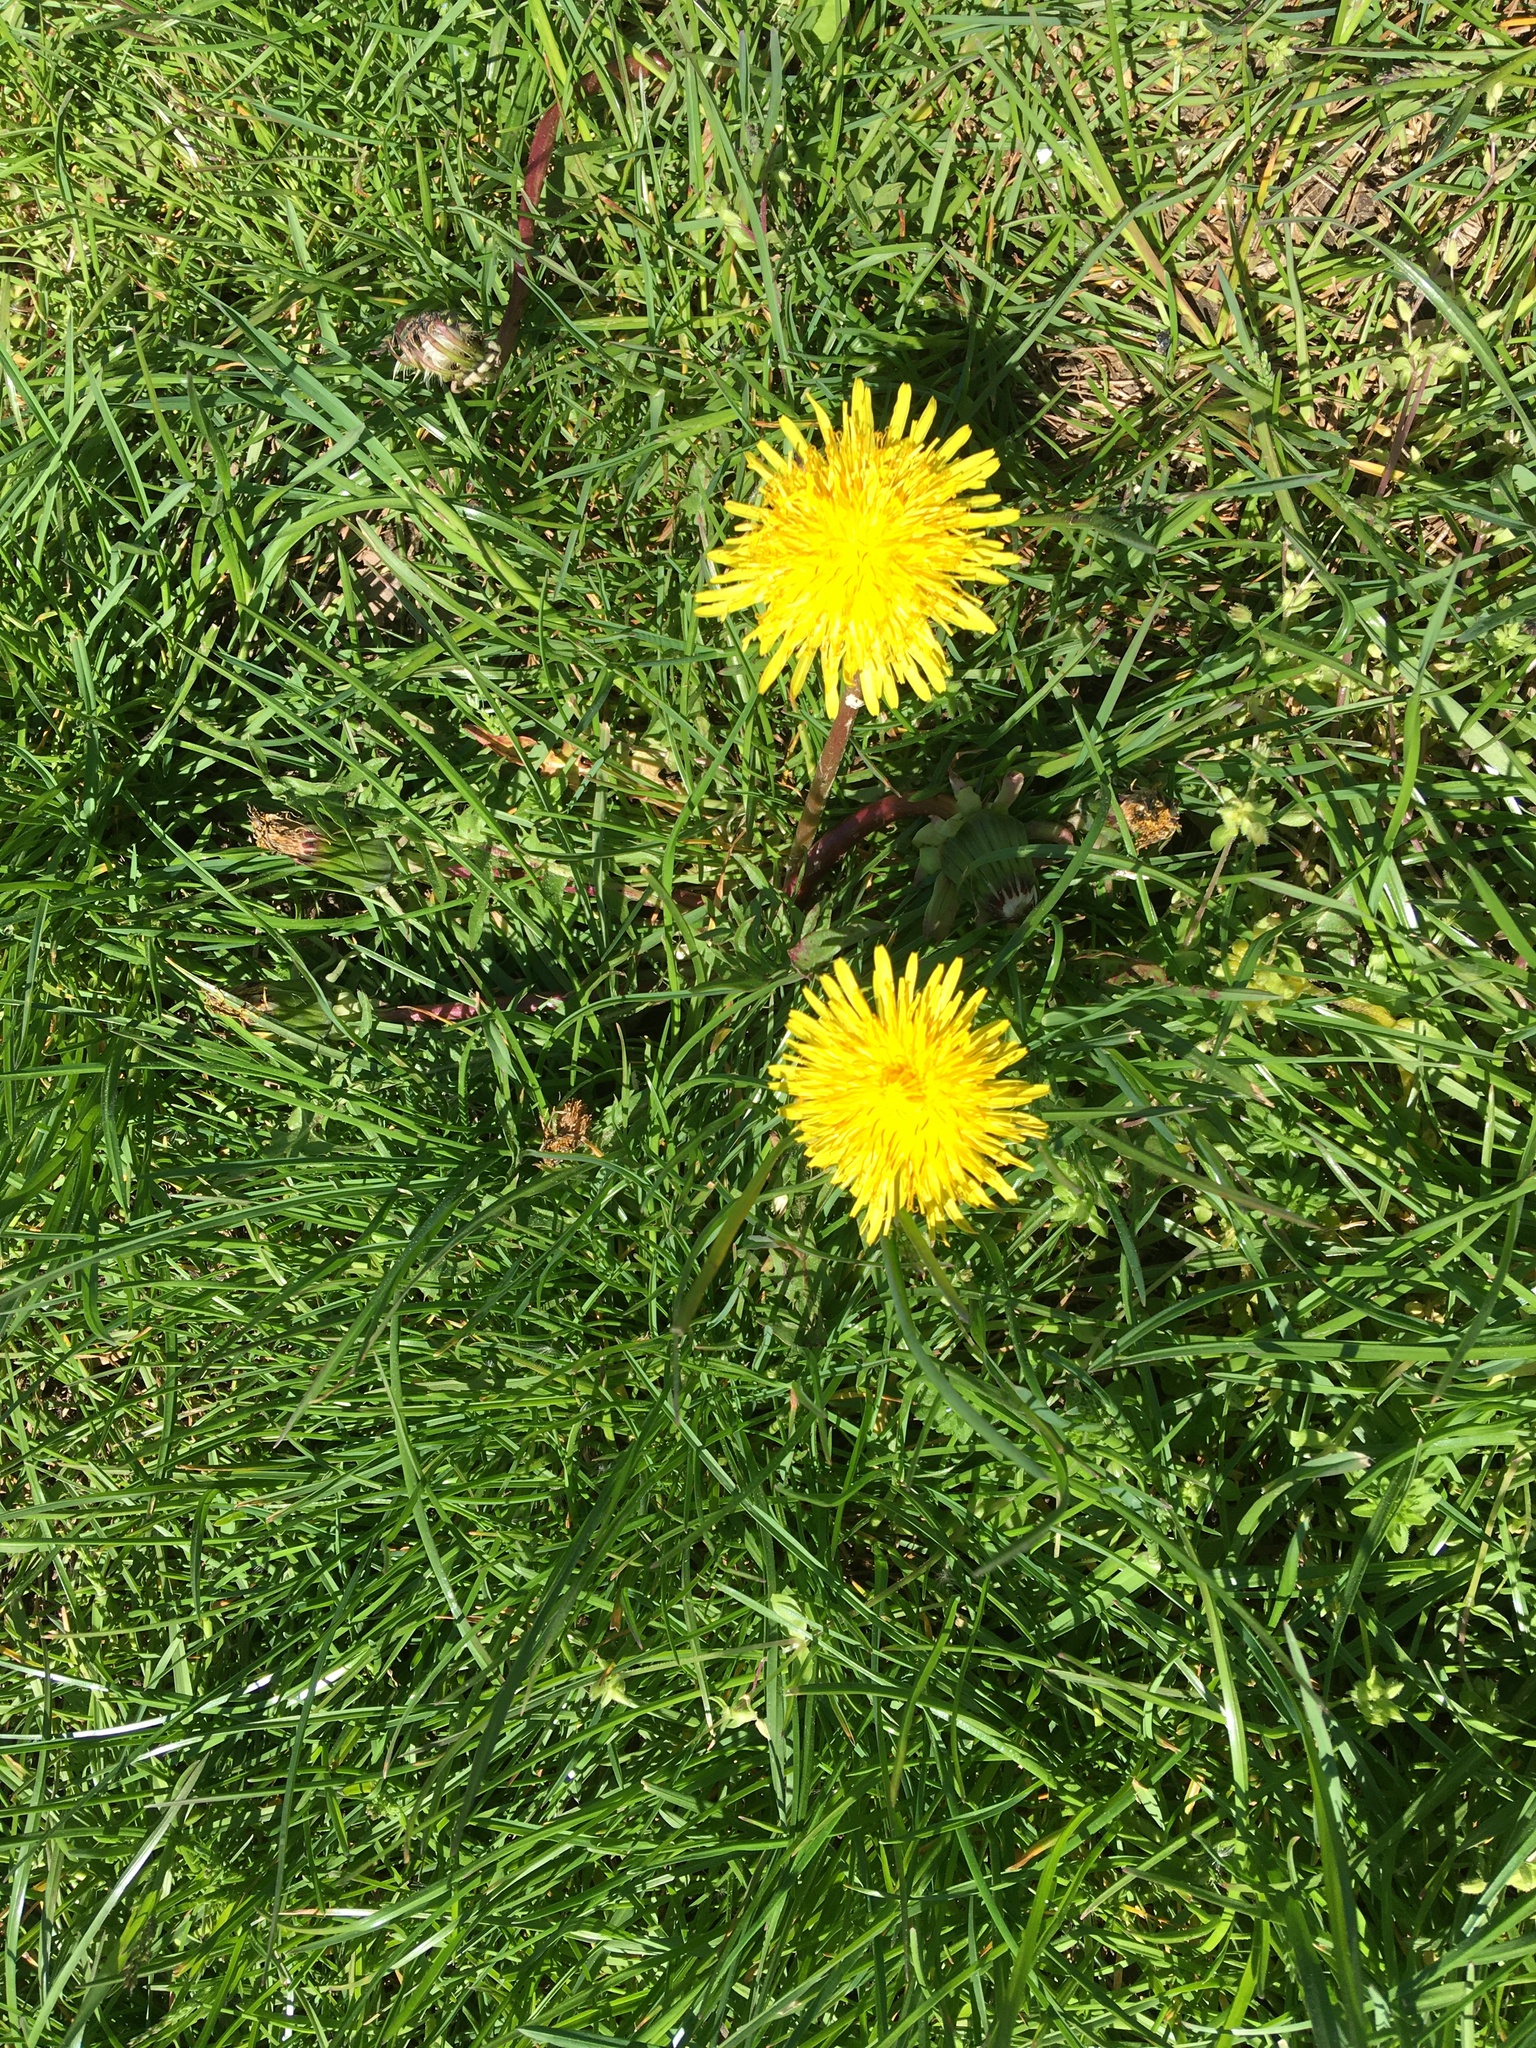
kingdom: Plantae
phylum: Tracheophyta
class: Magnoliopsida
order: Asterales
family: Asteraceae
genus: Taraxacum
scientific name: Taraxacum officinale
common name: Common dandelion
